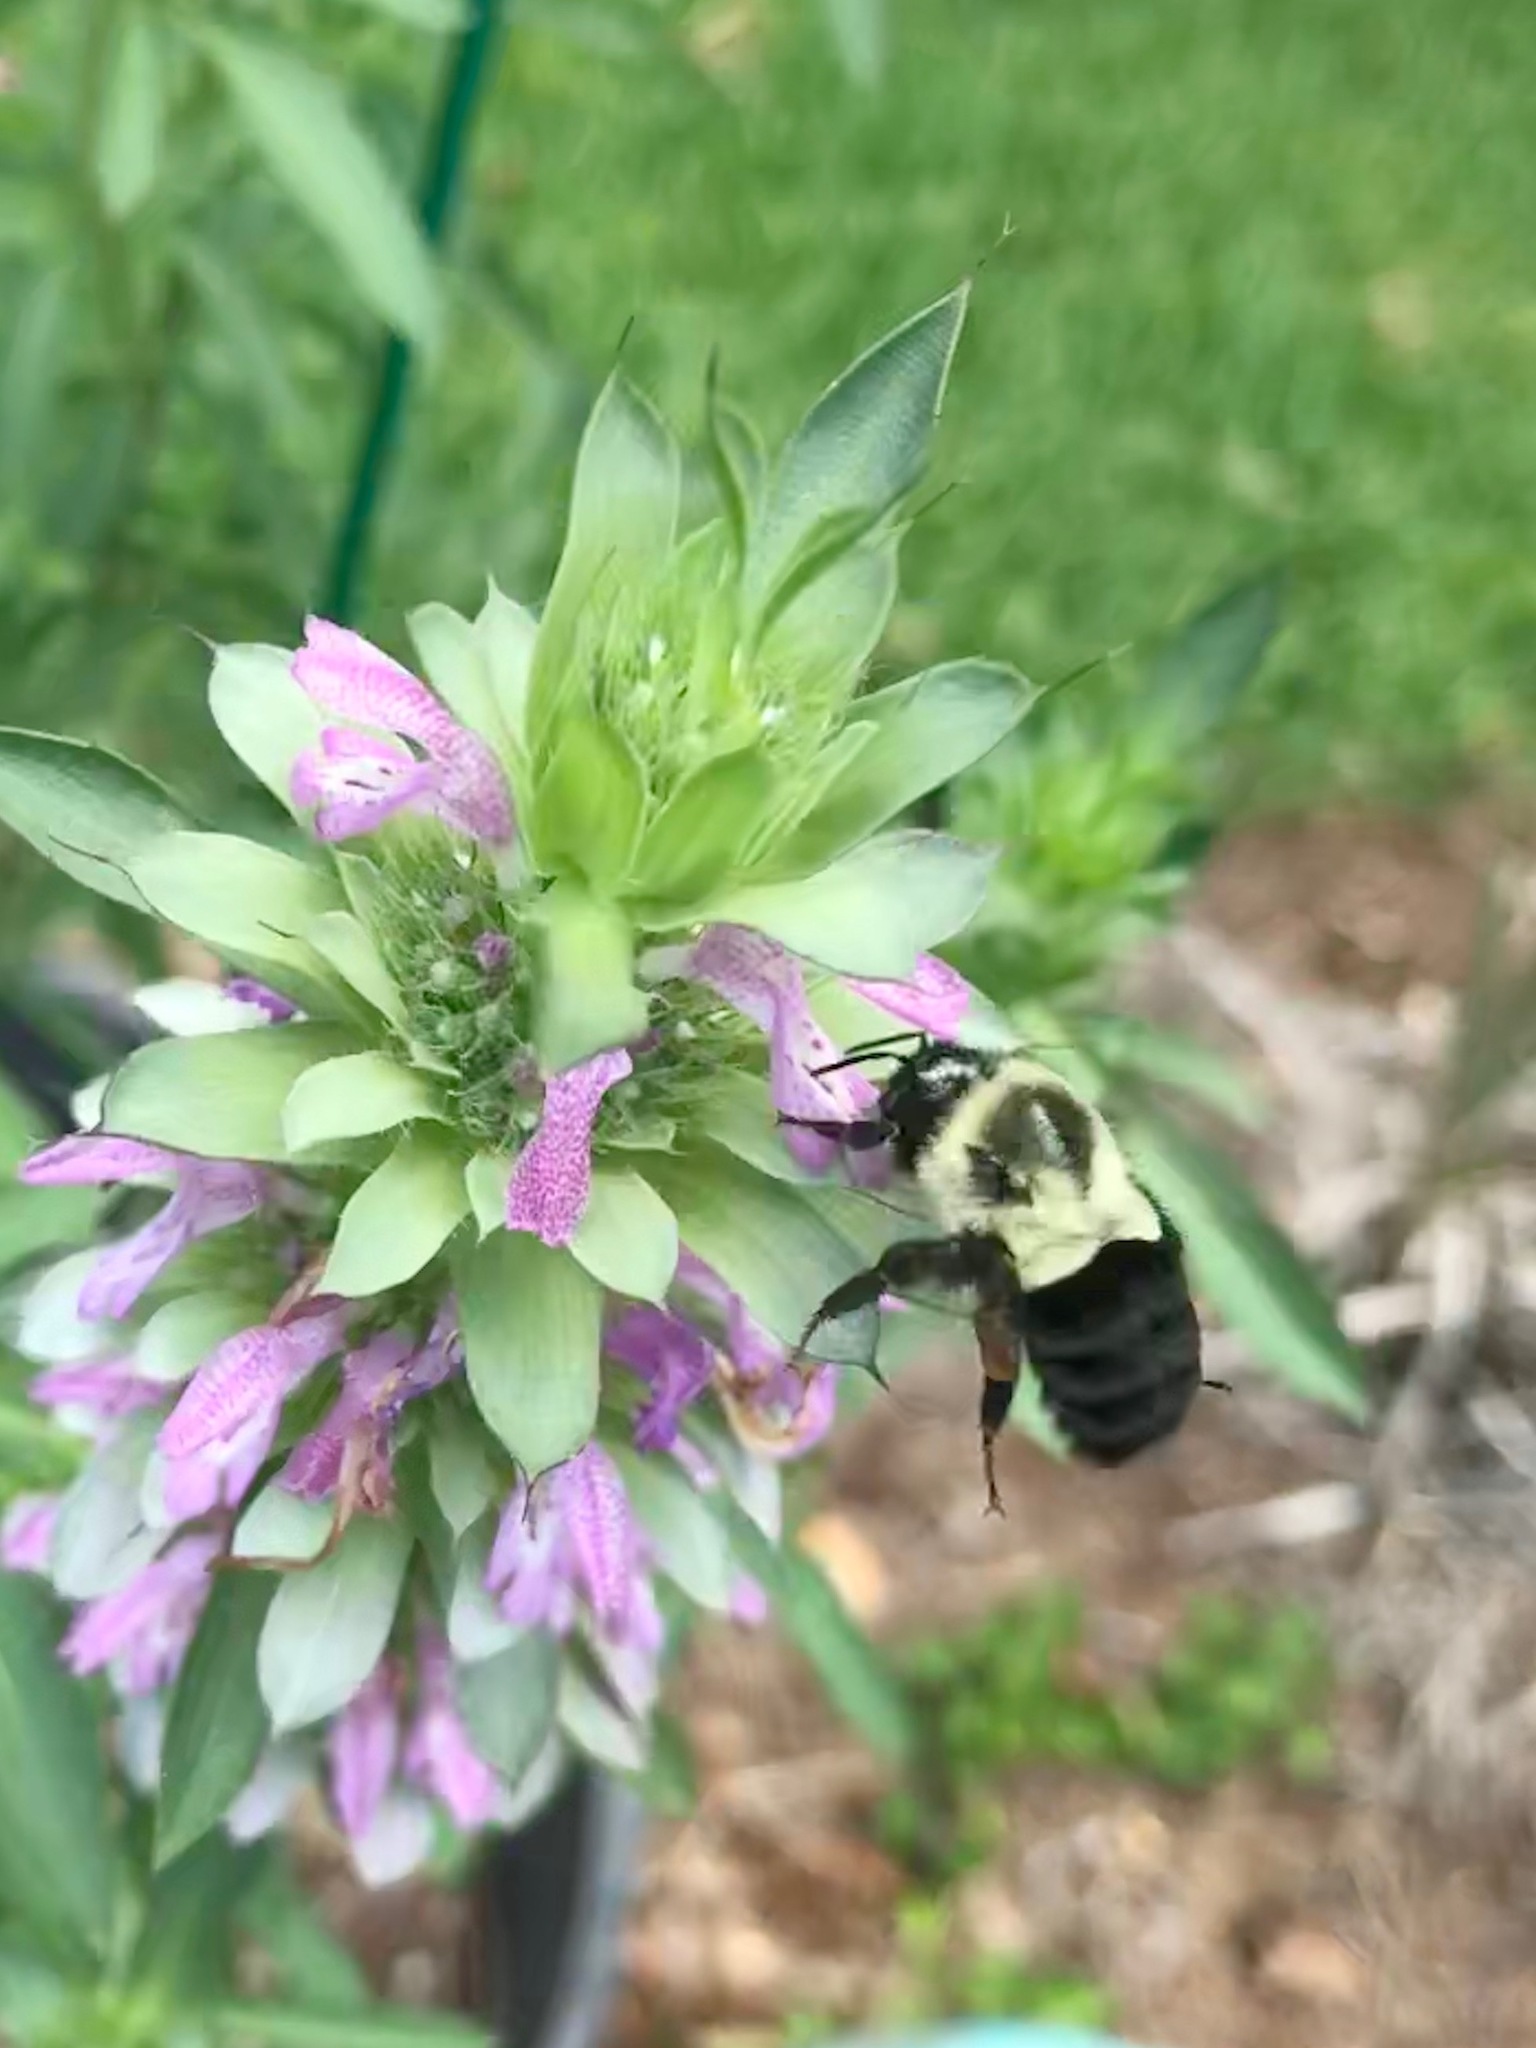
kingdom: Animalia
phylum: Arthropoda
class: Insecta
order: Hymenoptera
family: Apidae
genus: Bombus
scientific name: Bombus impatiens
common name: Common eastern bumble bee
